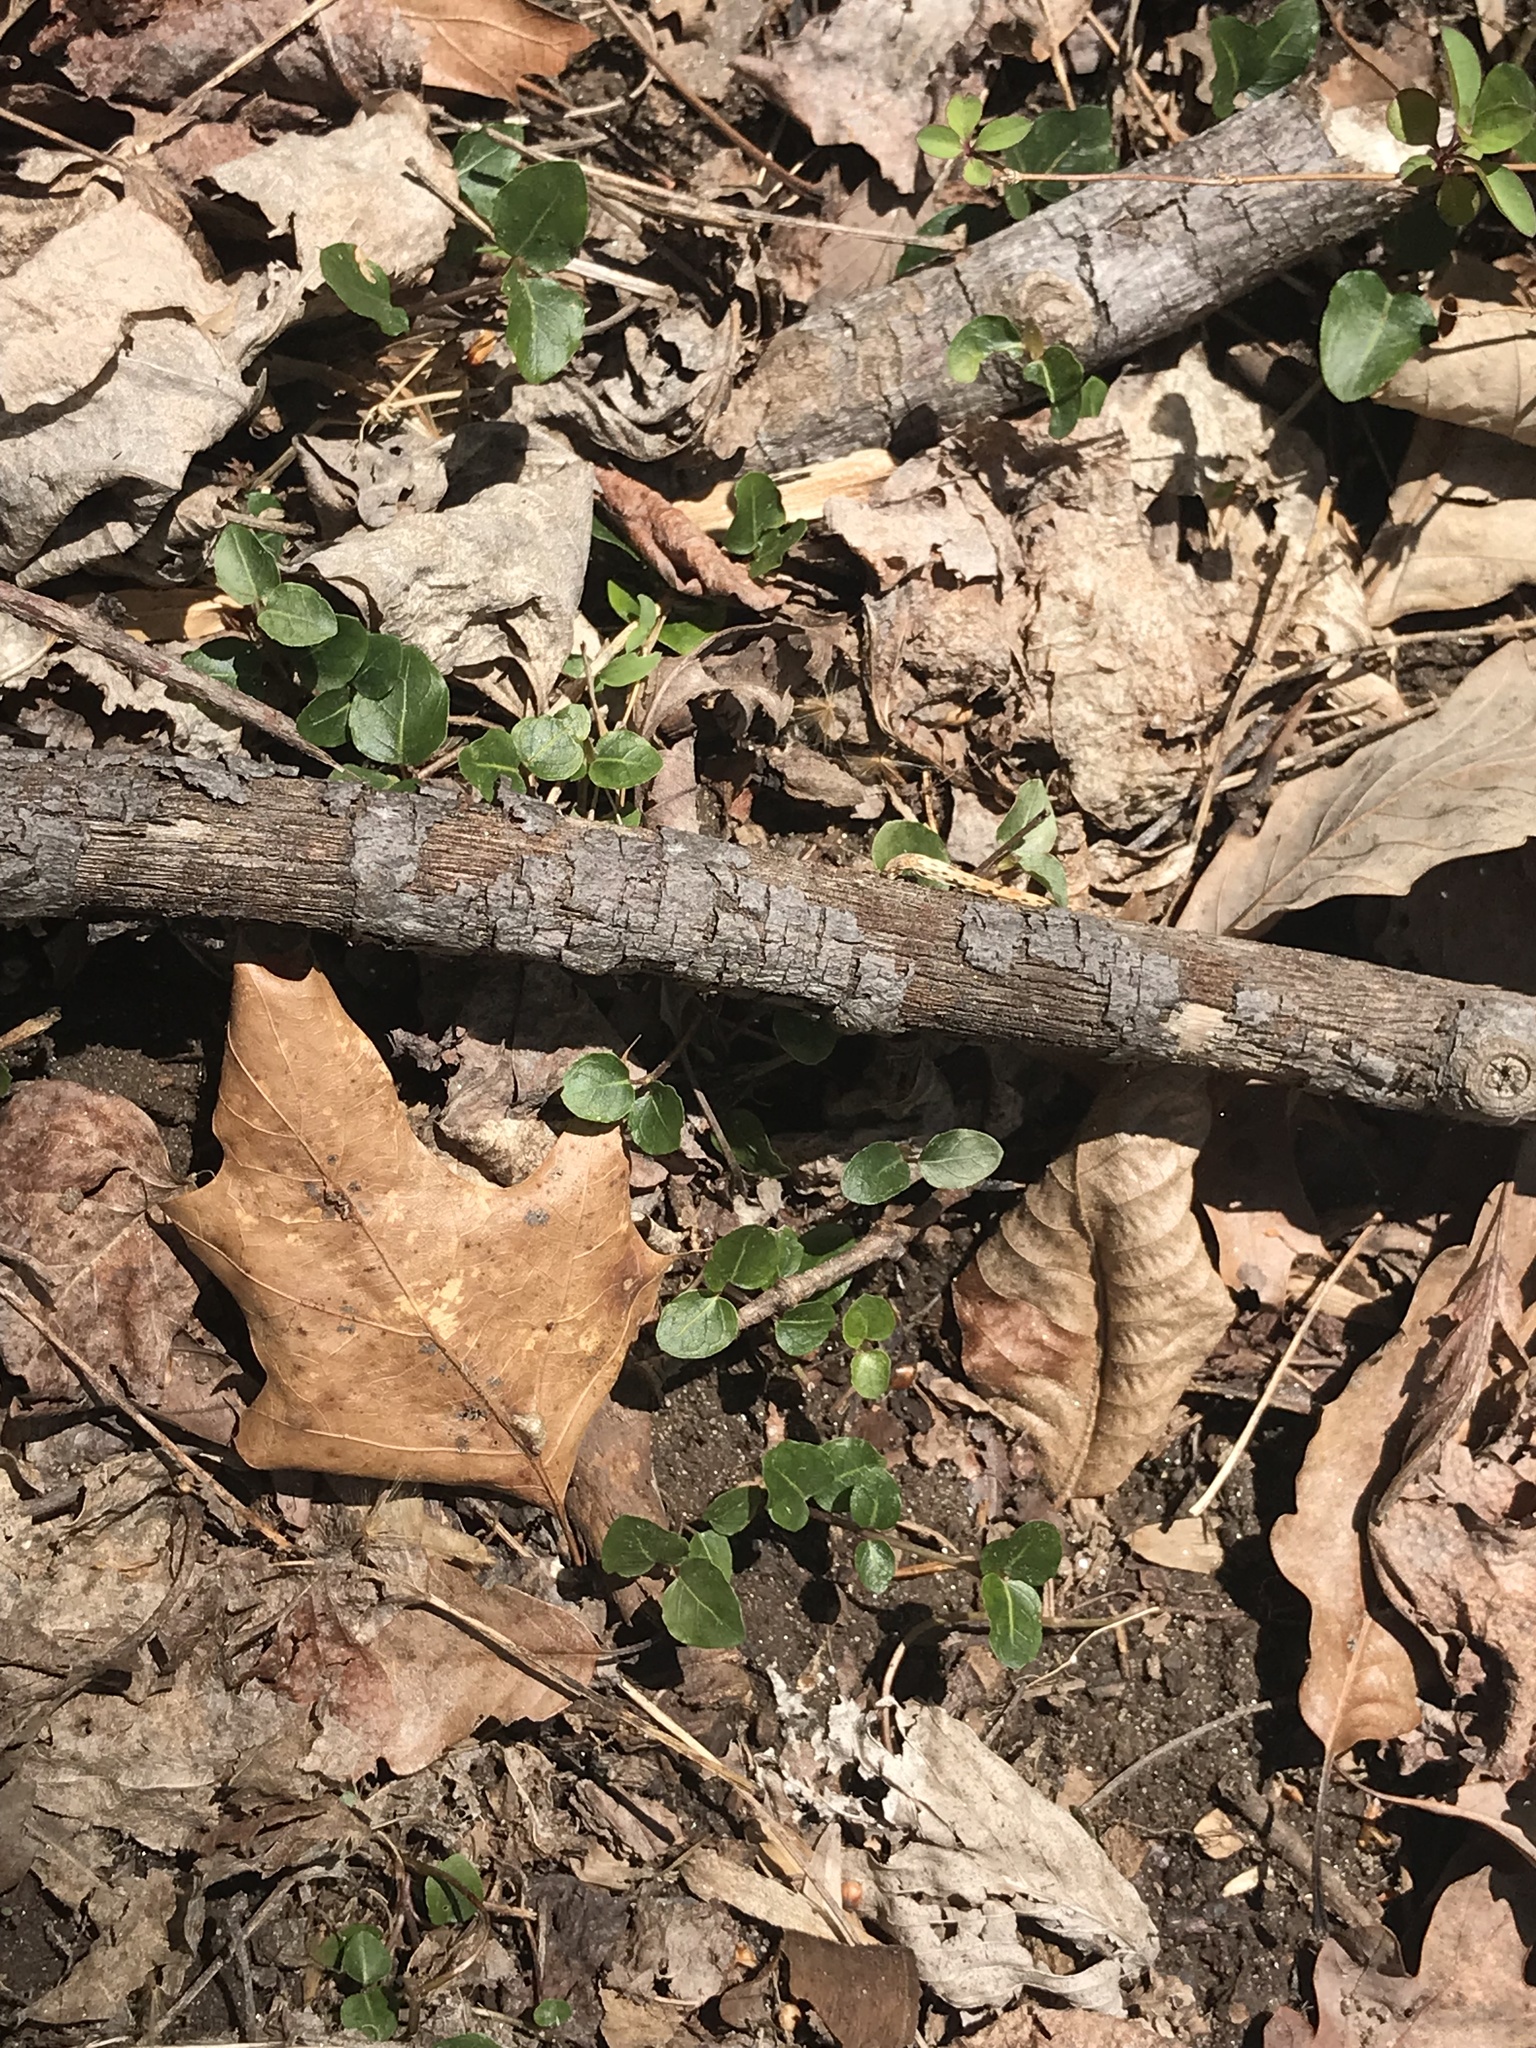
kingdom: Plantae
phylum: Tracheophyta
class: Magnoliopsida
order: Gentianales
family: Rubiaceae
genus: Mitchella
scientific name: Mitchella repens
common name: Partridge-berry
